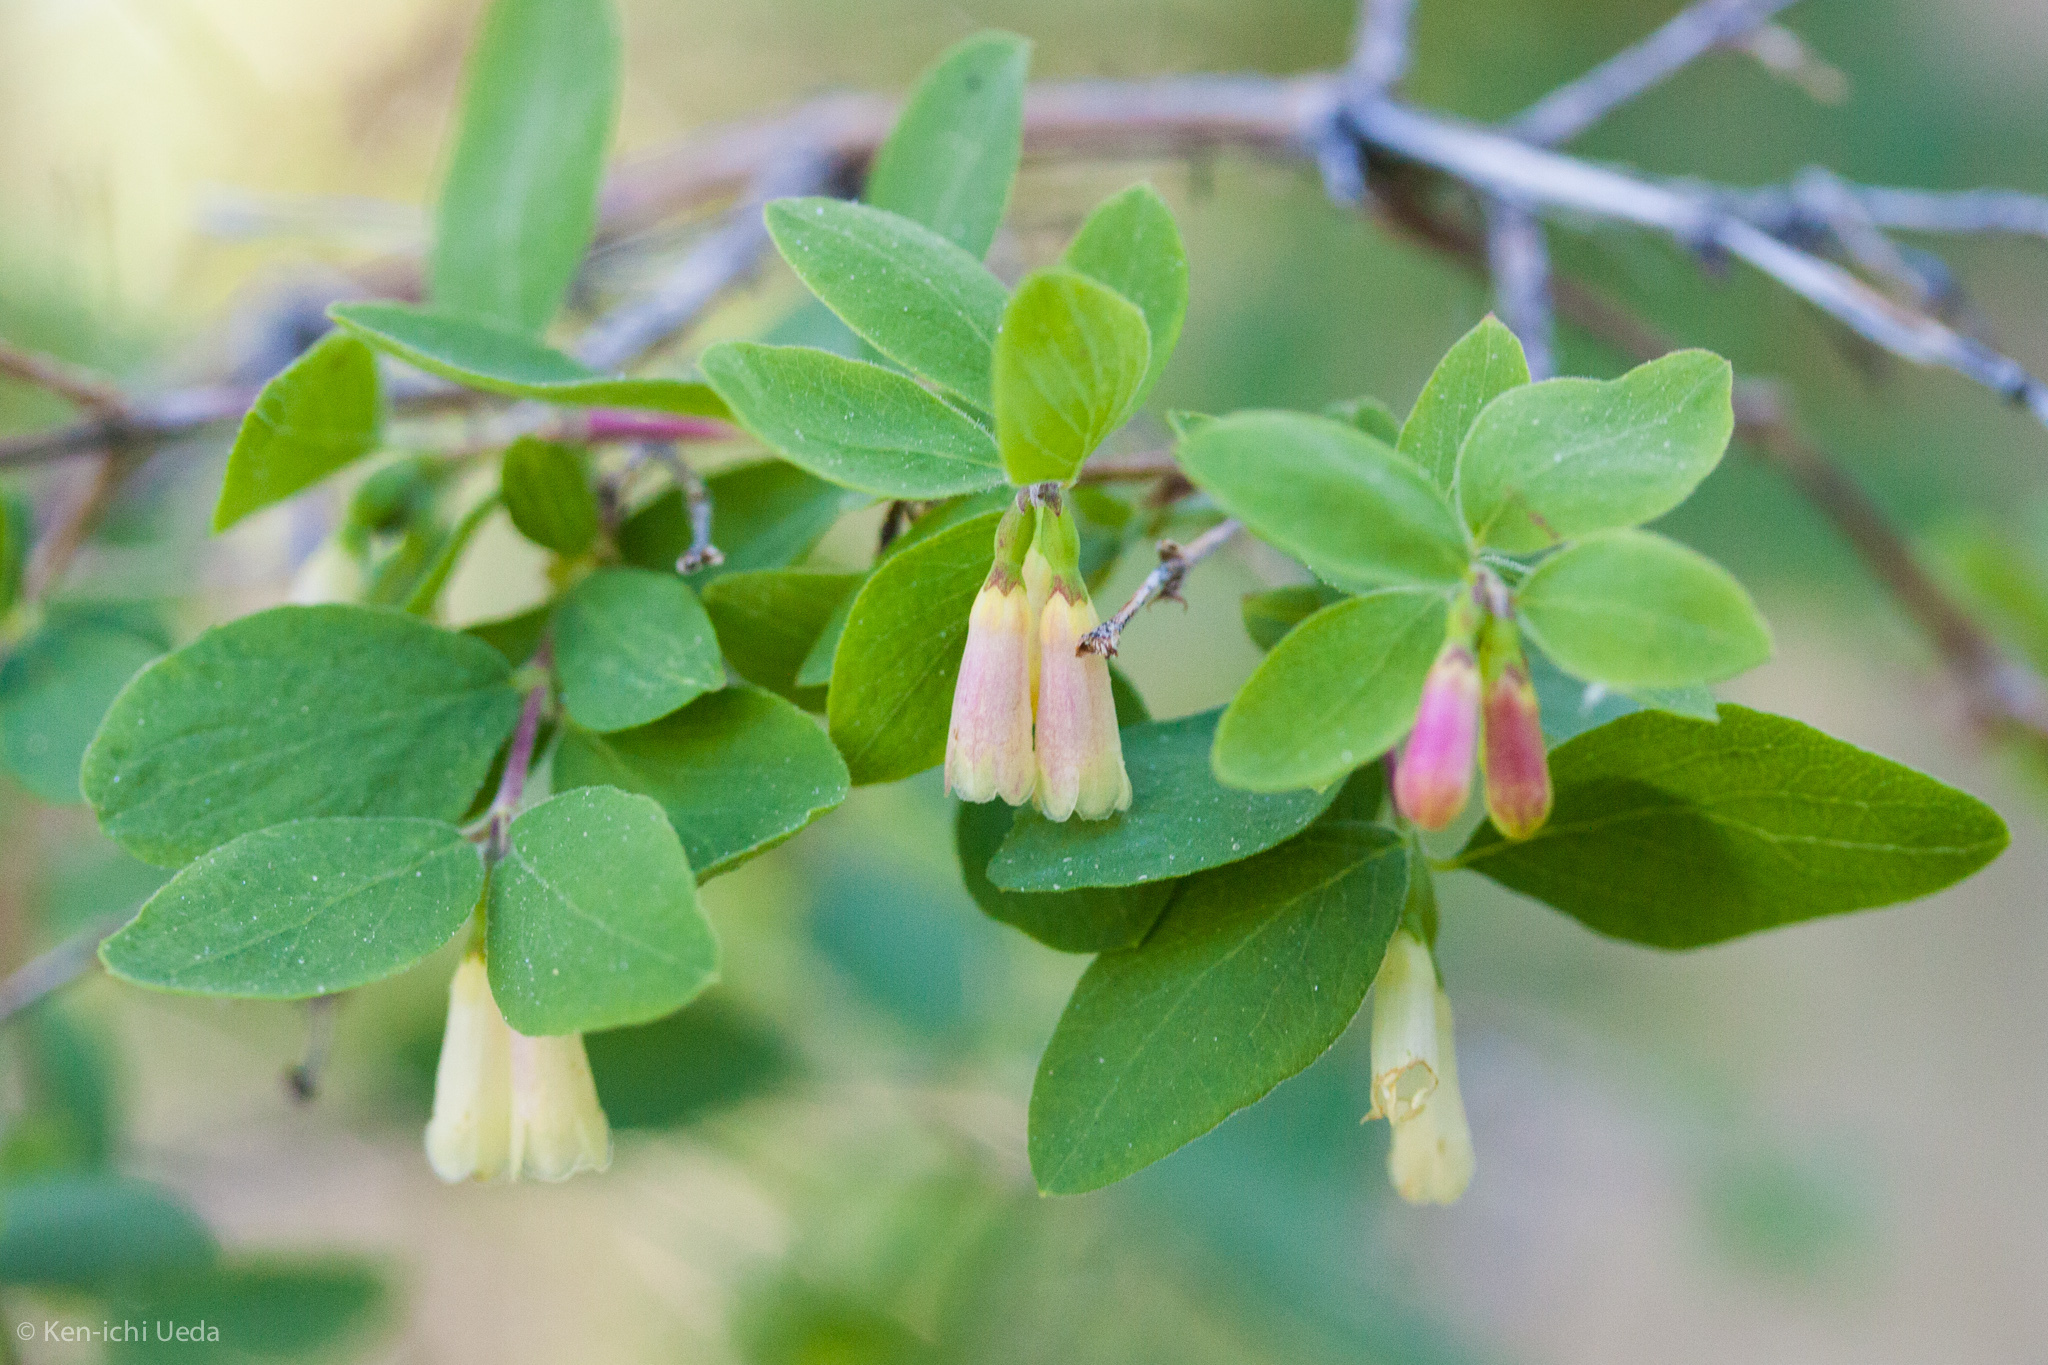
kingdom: Plantae
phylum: Tracheophyta
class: Magnoliopsida
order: Dipsacales
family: Caprifoliaceae
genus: Symphoricarpos
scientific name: Symphoricarpos rotundifolius
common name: Round-leaved snowberry
